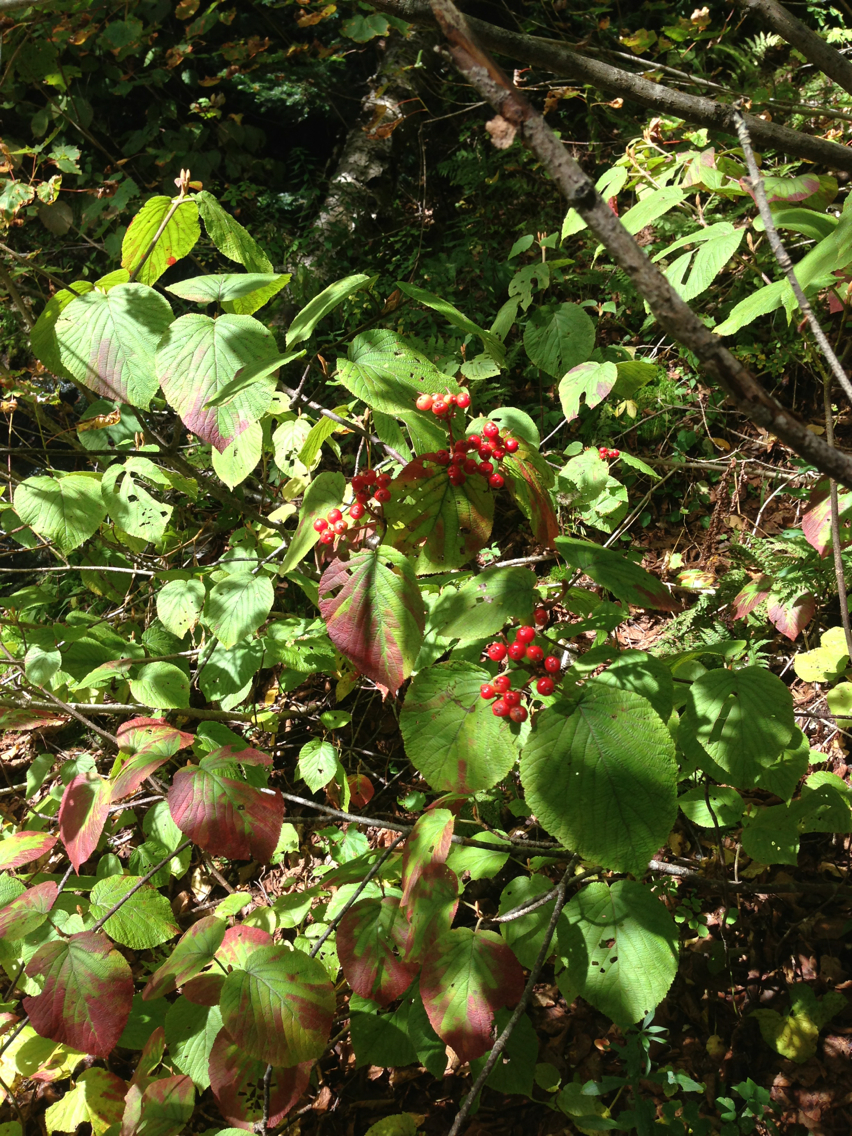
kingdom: Plantae
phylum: Tracheophyta
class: Magnoliopsida
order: Dipsacales
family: Viburnaceae
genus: Viburnum
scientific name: Viburnum lantanoides
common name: Hobblebush
